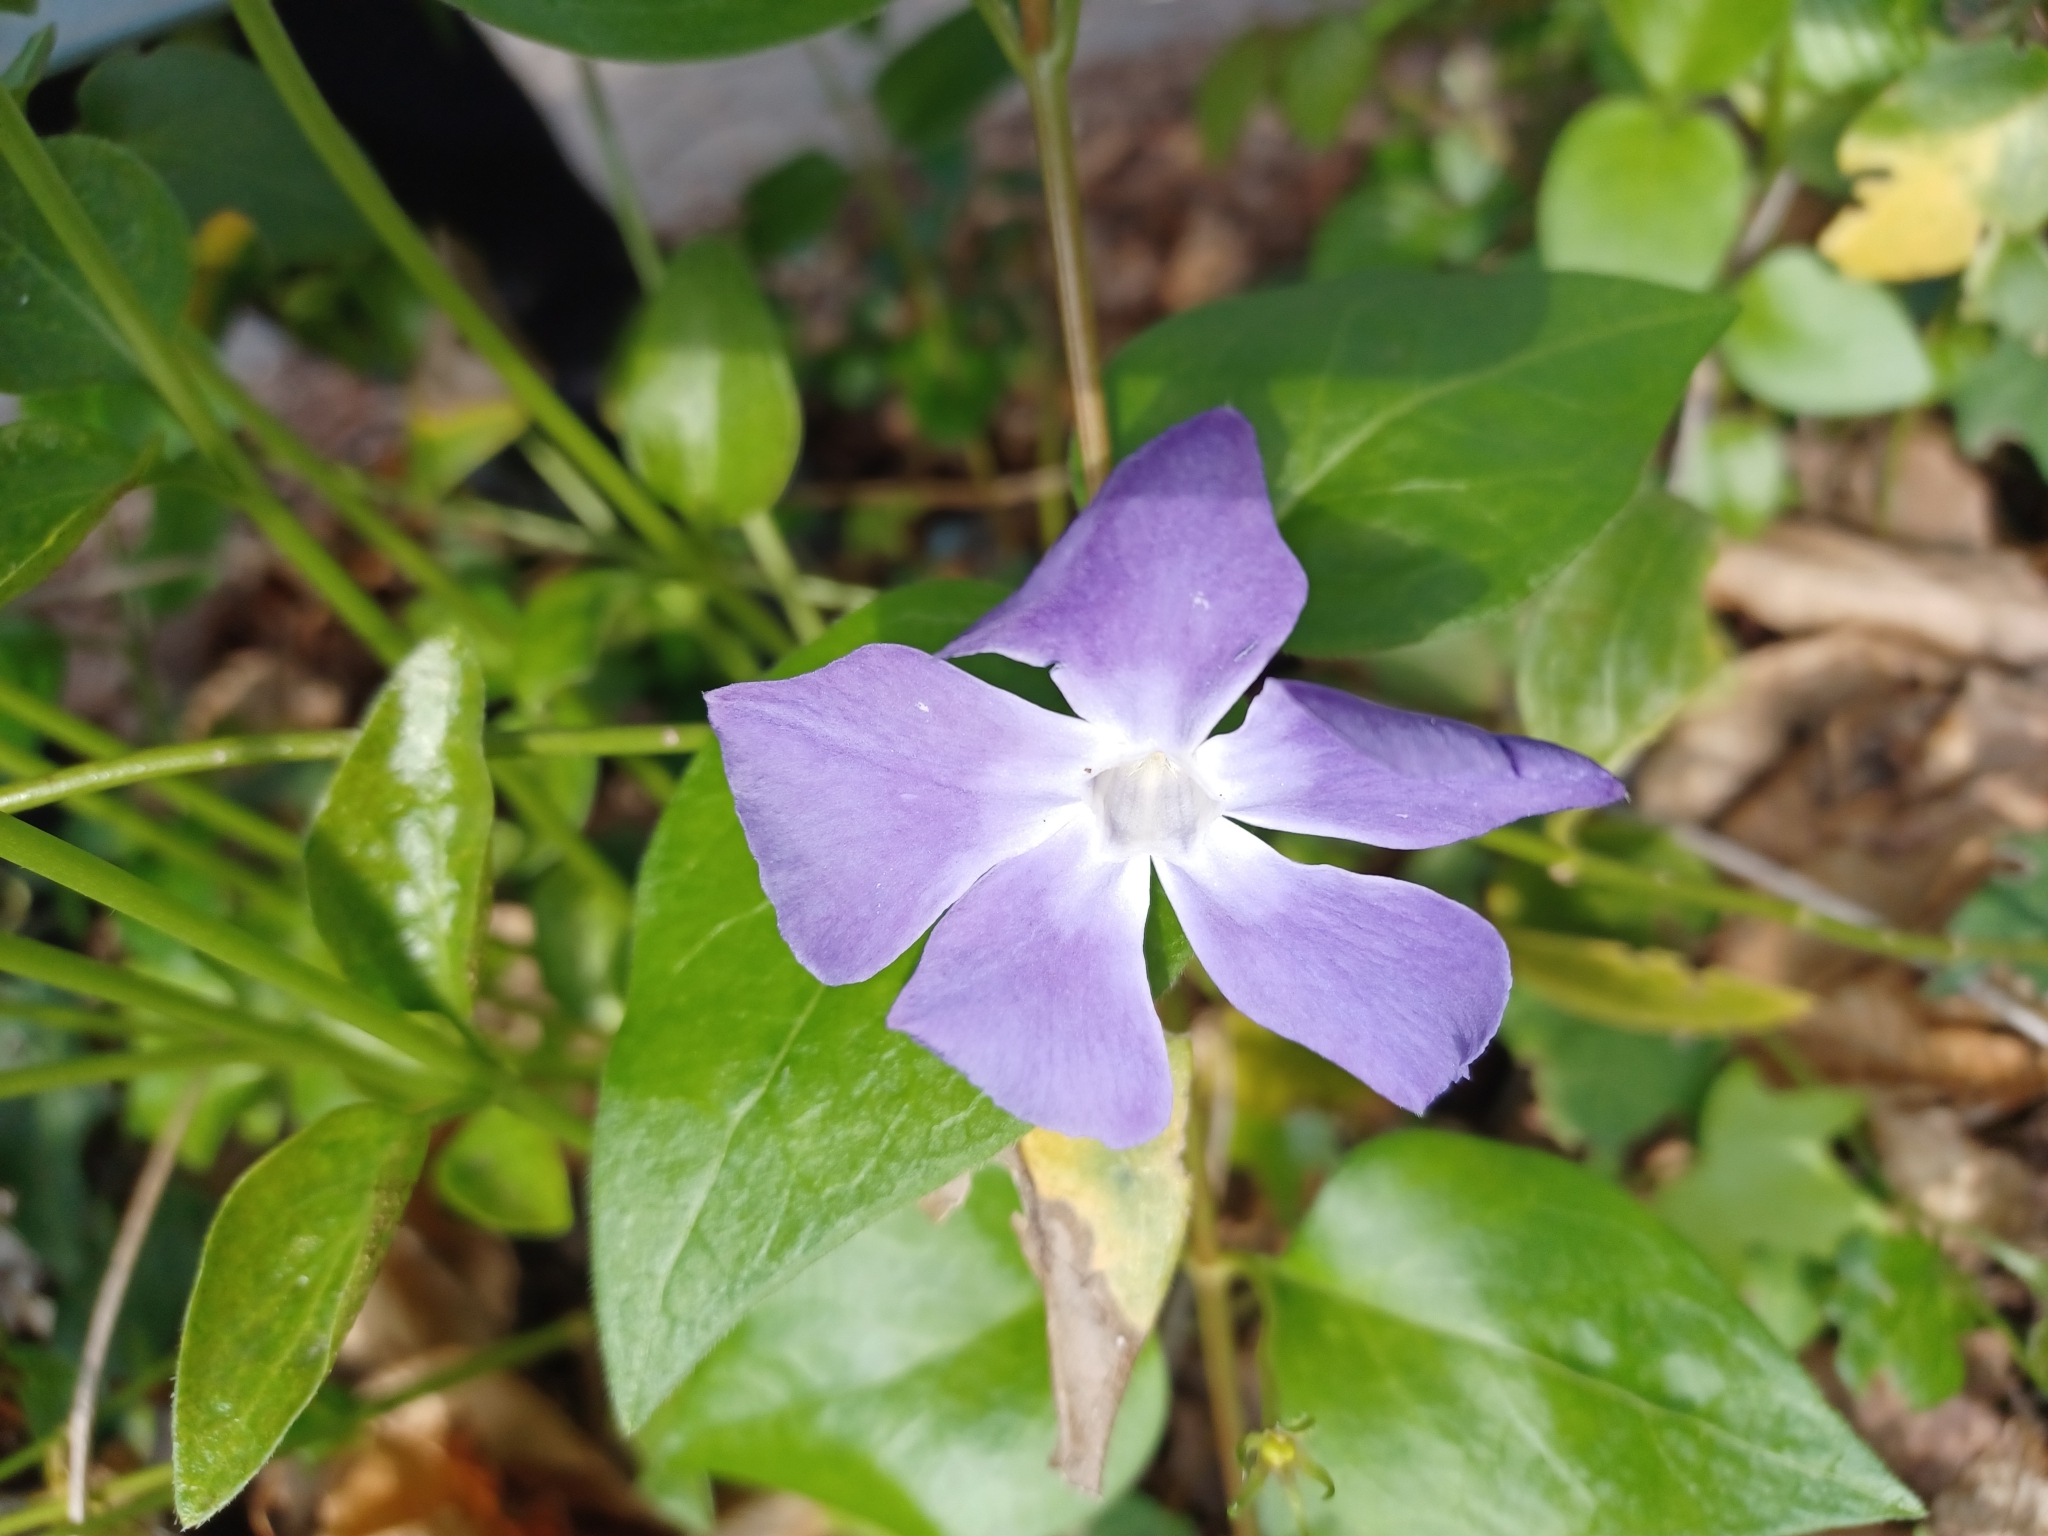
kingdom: Plantae
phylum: Tracheophyta
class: Magnoliopsida
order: Gentianales
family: Apocynaceae
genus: Vinca
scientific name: Vinca major
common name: Greater periwinkle
